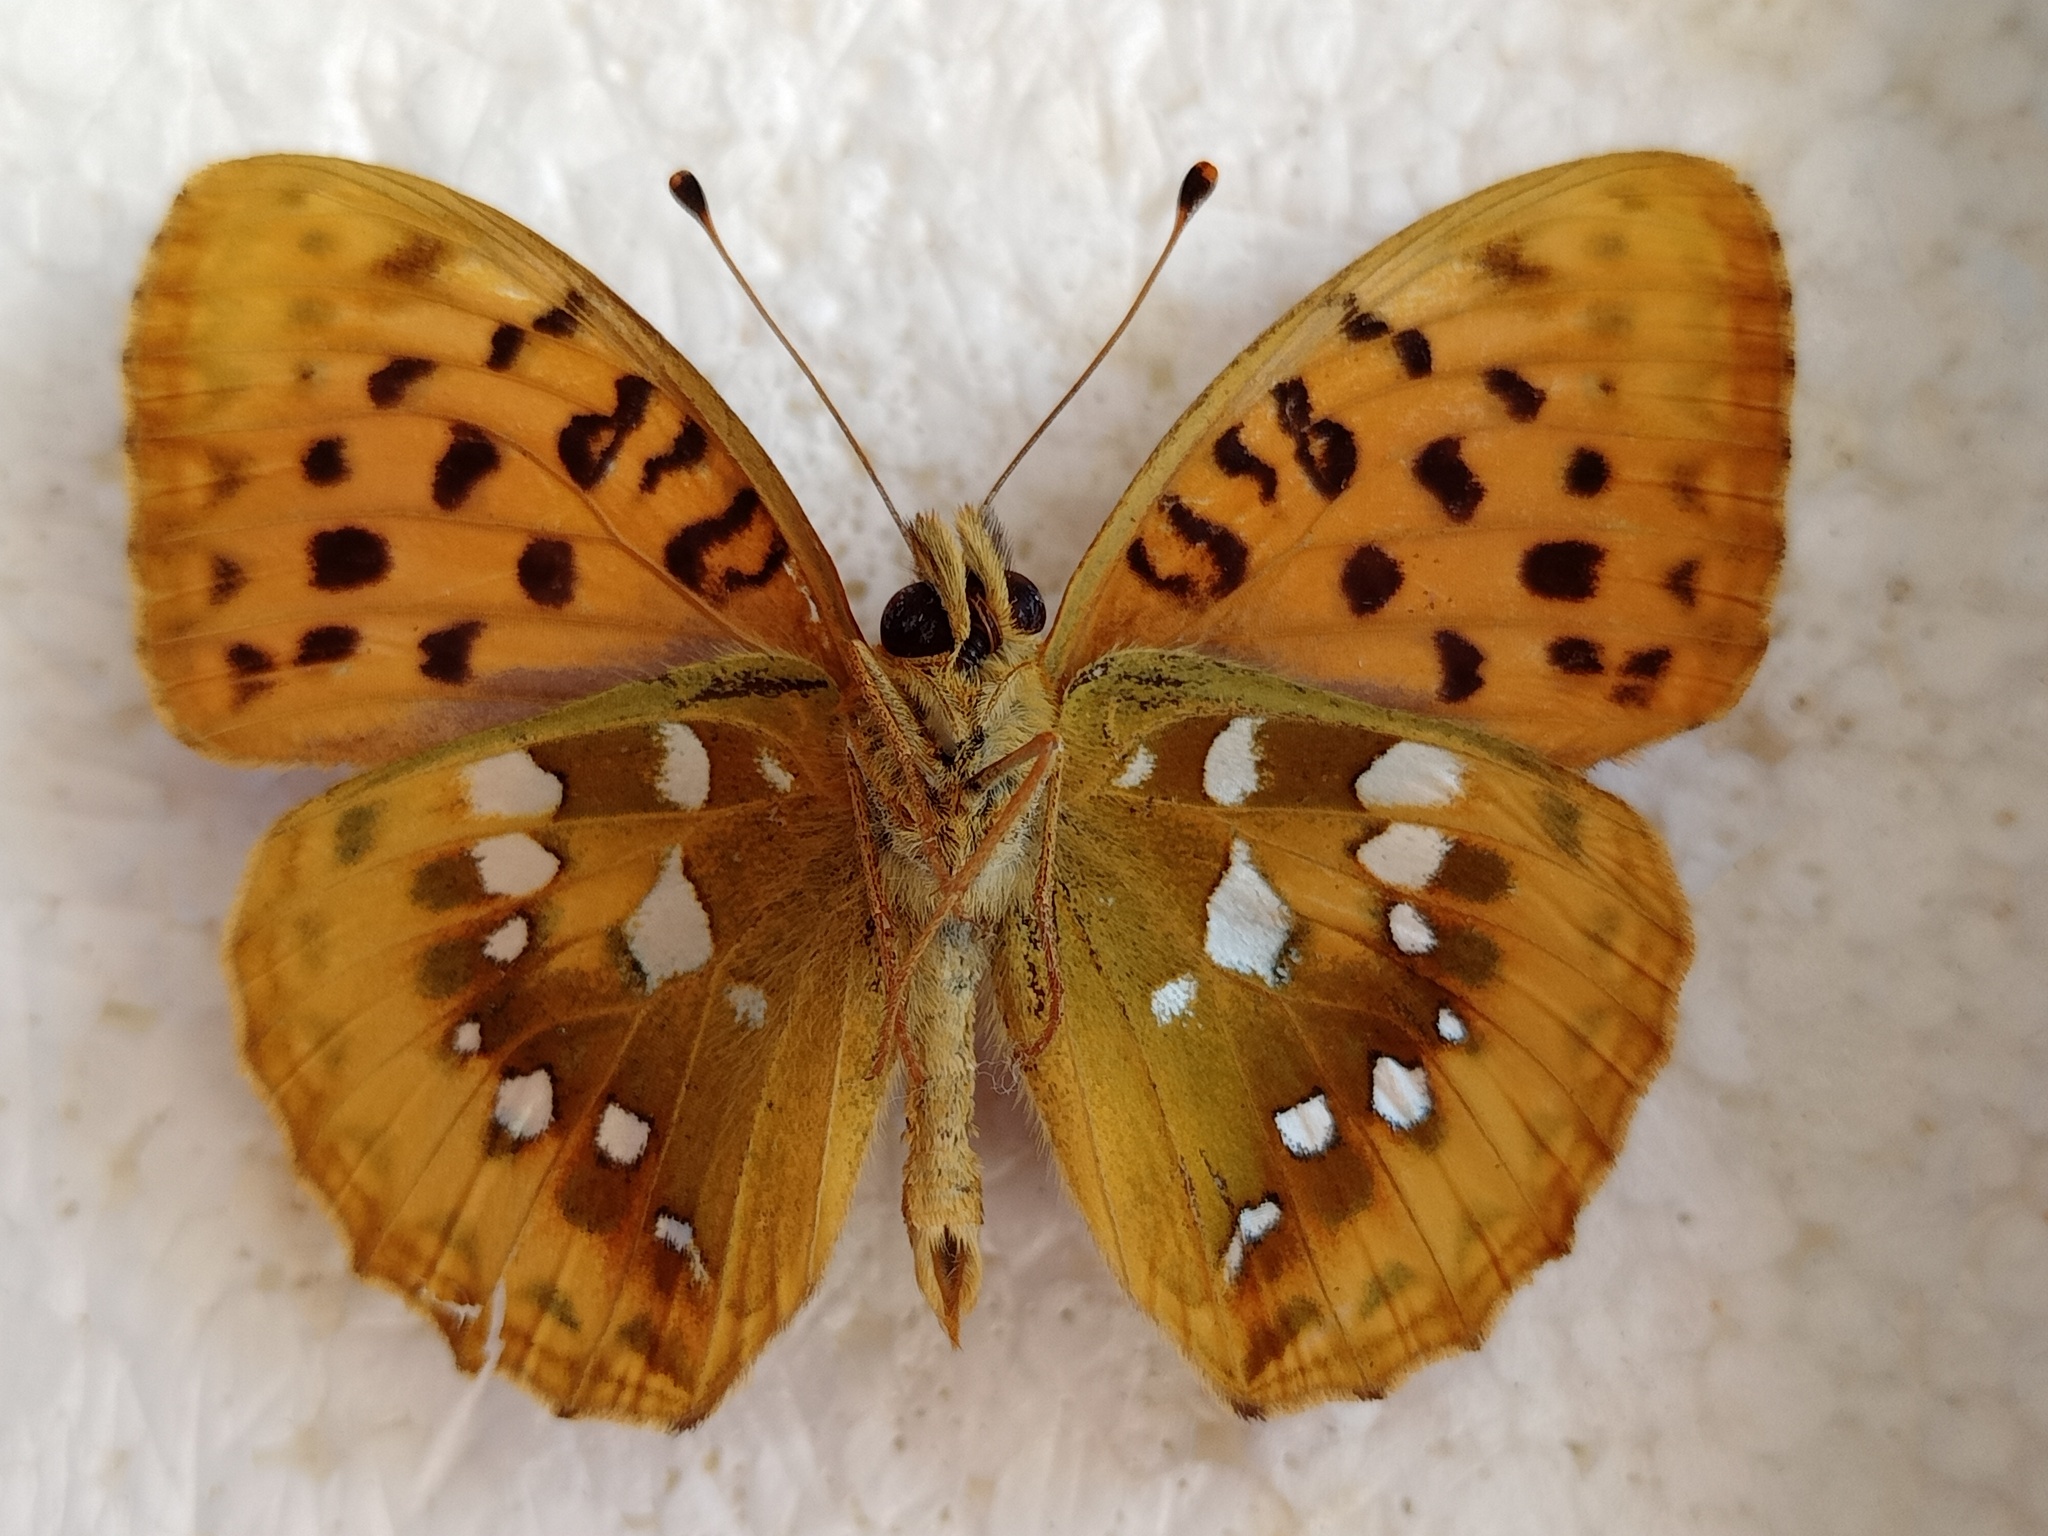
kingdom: Animalia
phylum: Arthropoda
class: Insecta
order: Lepidoptera
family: Nymphalidae
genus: Speyeria
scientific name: Speyeria aglaja
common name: Dark green fritillary
